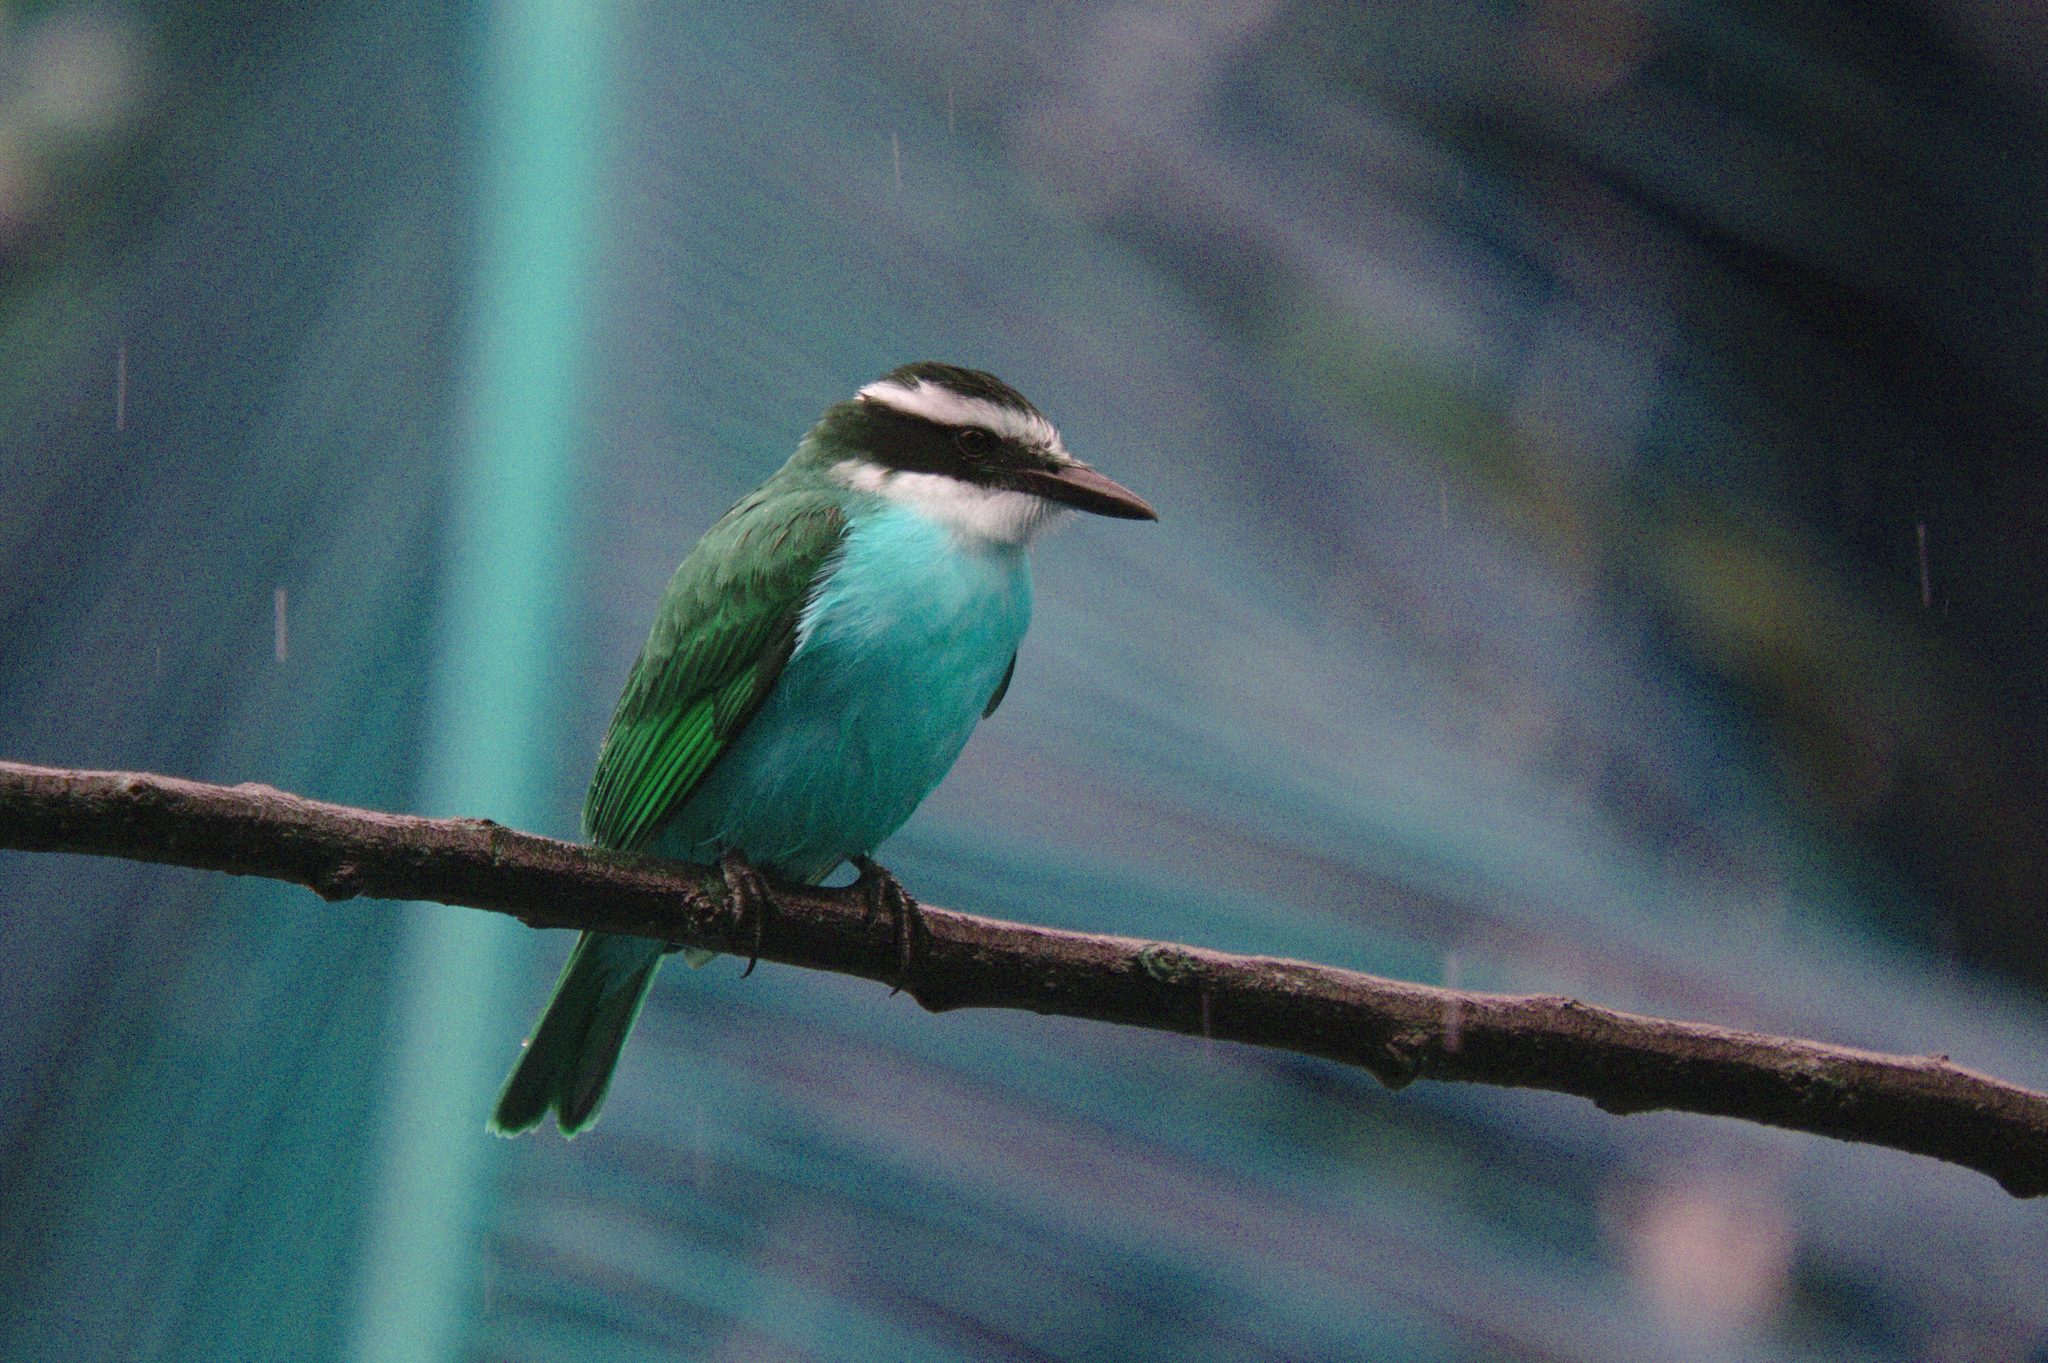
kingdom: Animalia
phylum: Chordata
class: Aves
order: Passeriformes
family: Tyrannidae
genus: Pitangus
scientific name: Pitangus sulphuratus
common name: Great kiskadee
